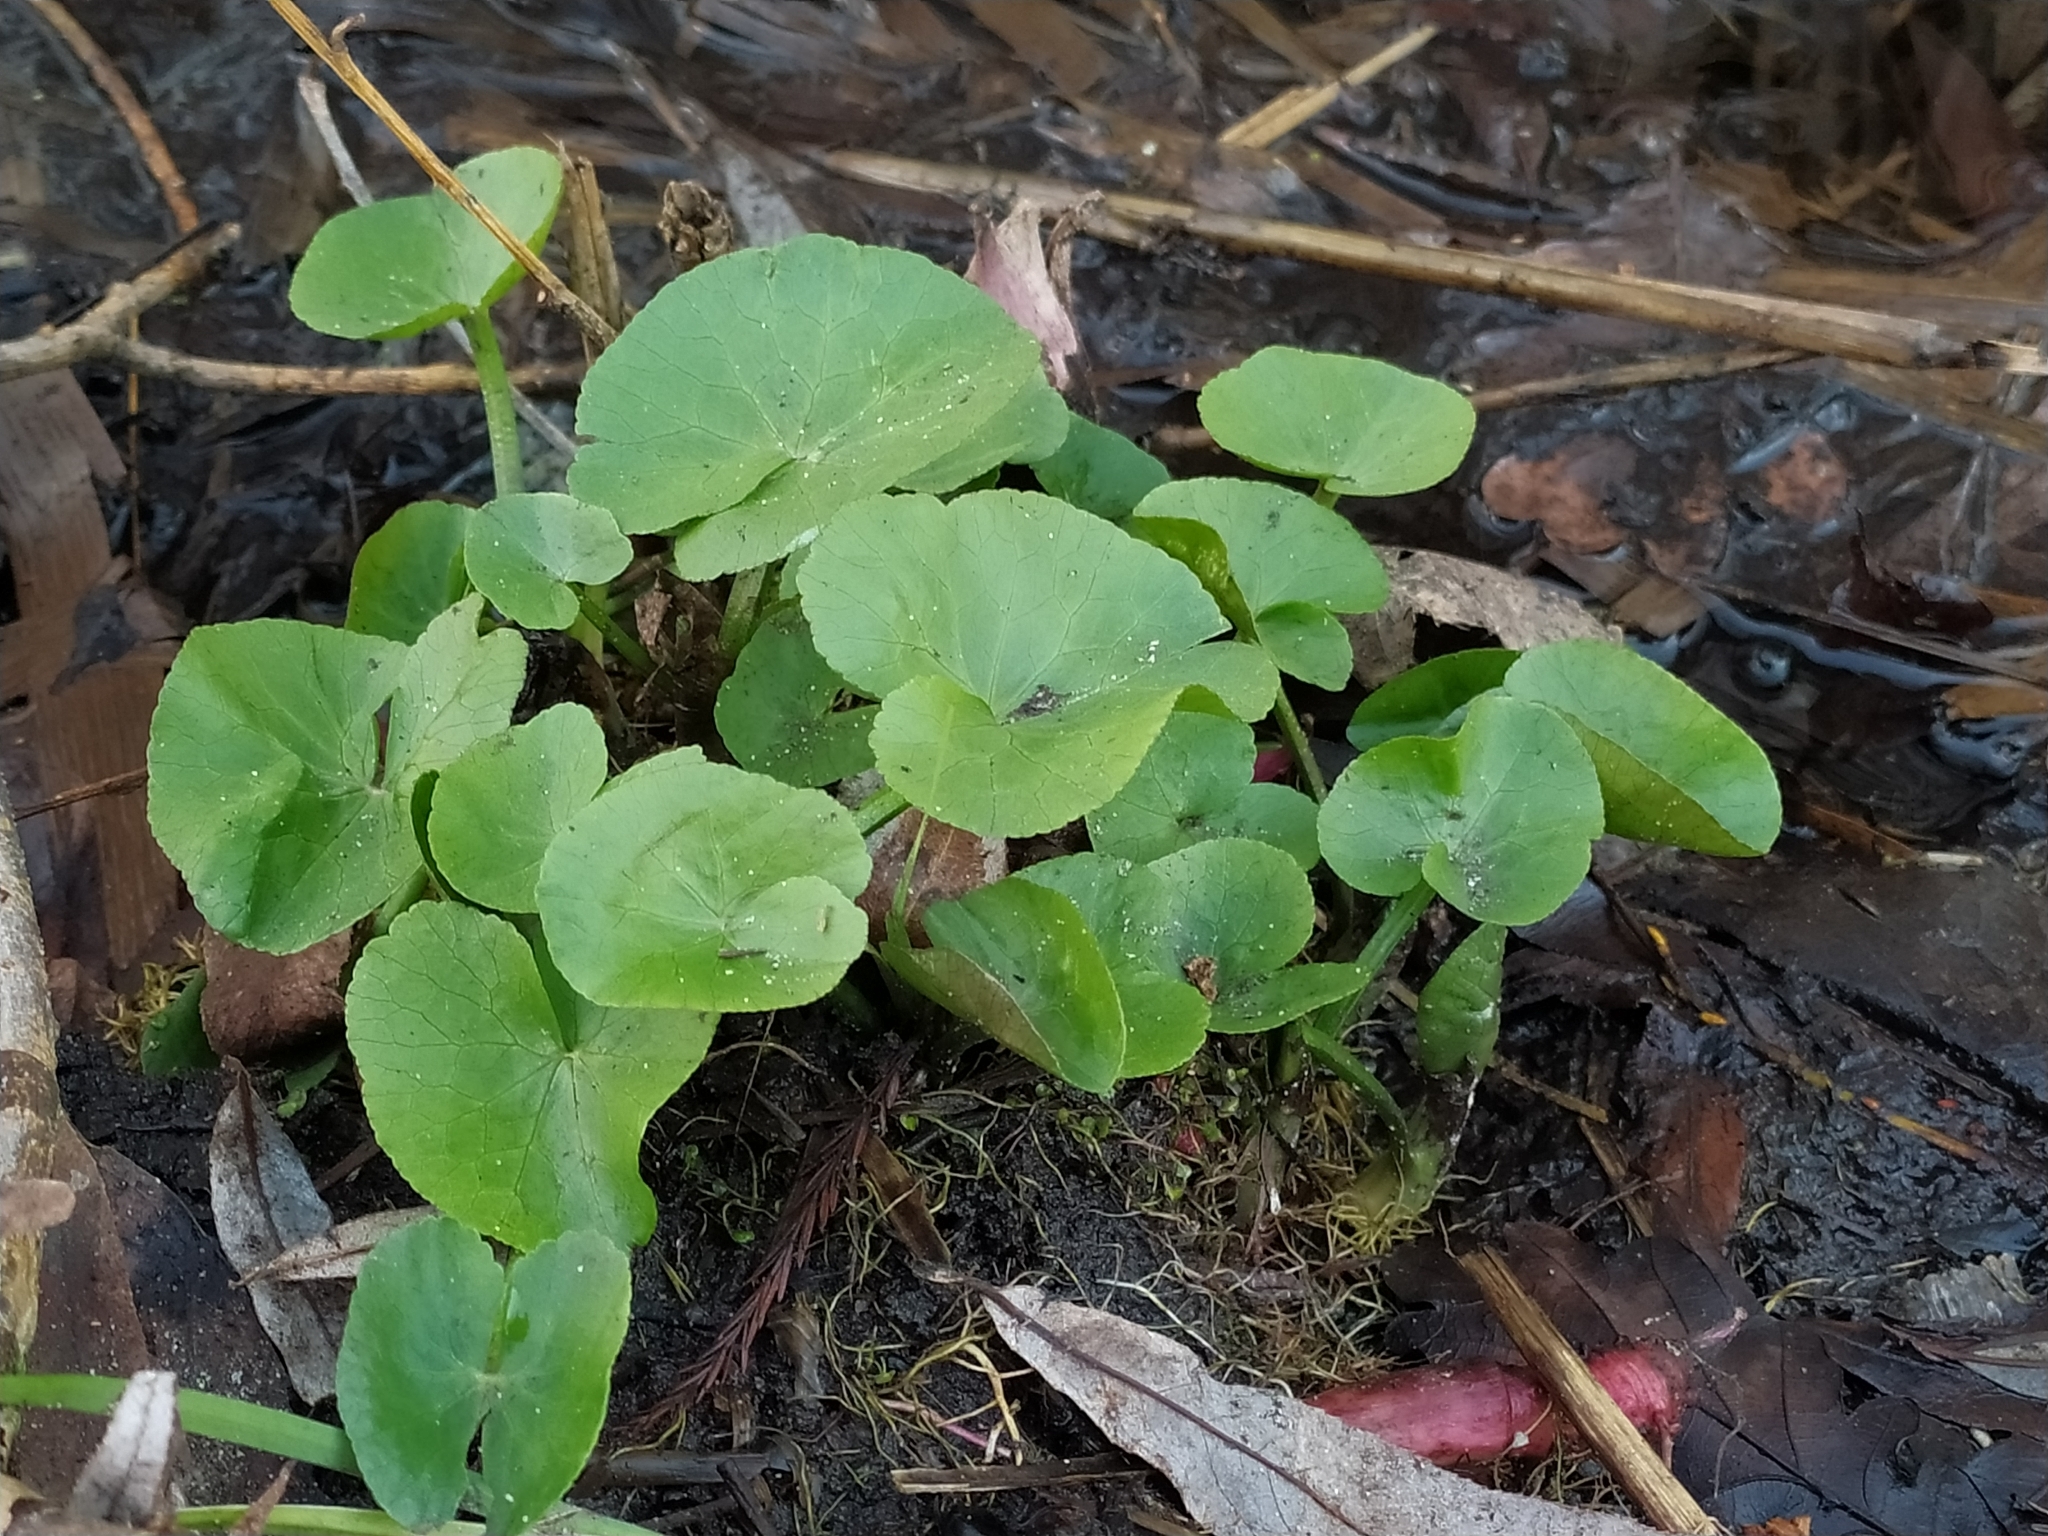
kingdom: Plantae
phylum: Tracheophyta
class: Magnoliopsida
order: Ranunculales
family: Ranunculaceae
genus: Caltha
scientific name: Caltha palustris
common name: Marsh marigold
